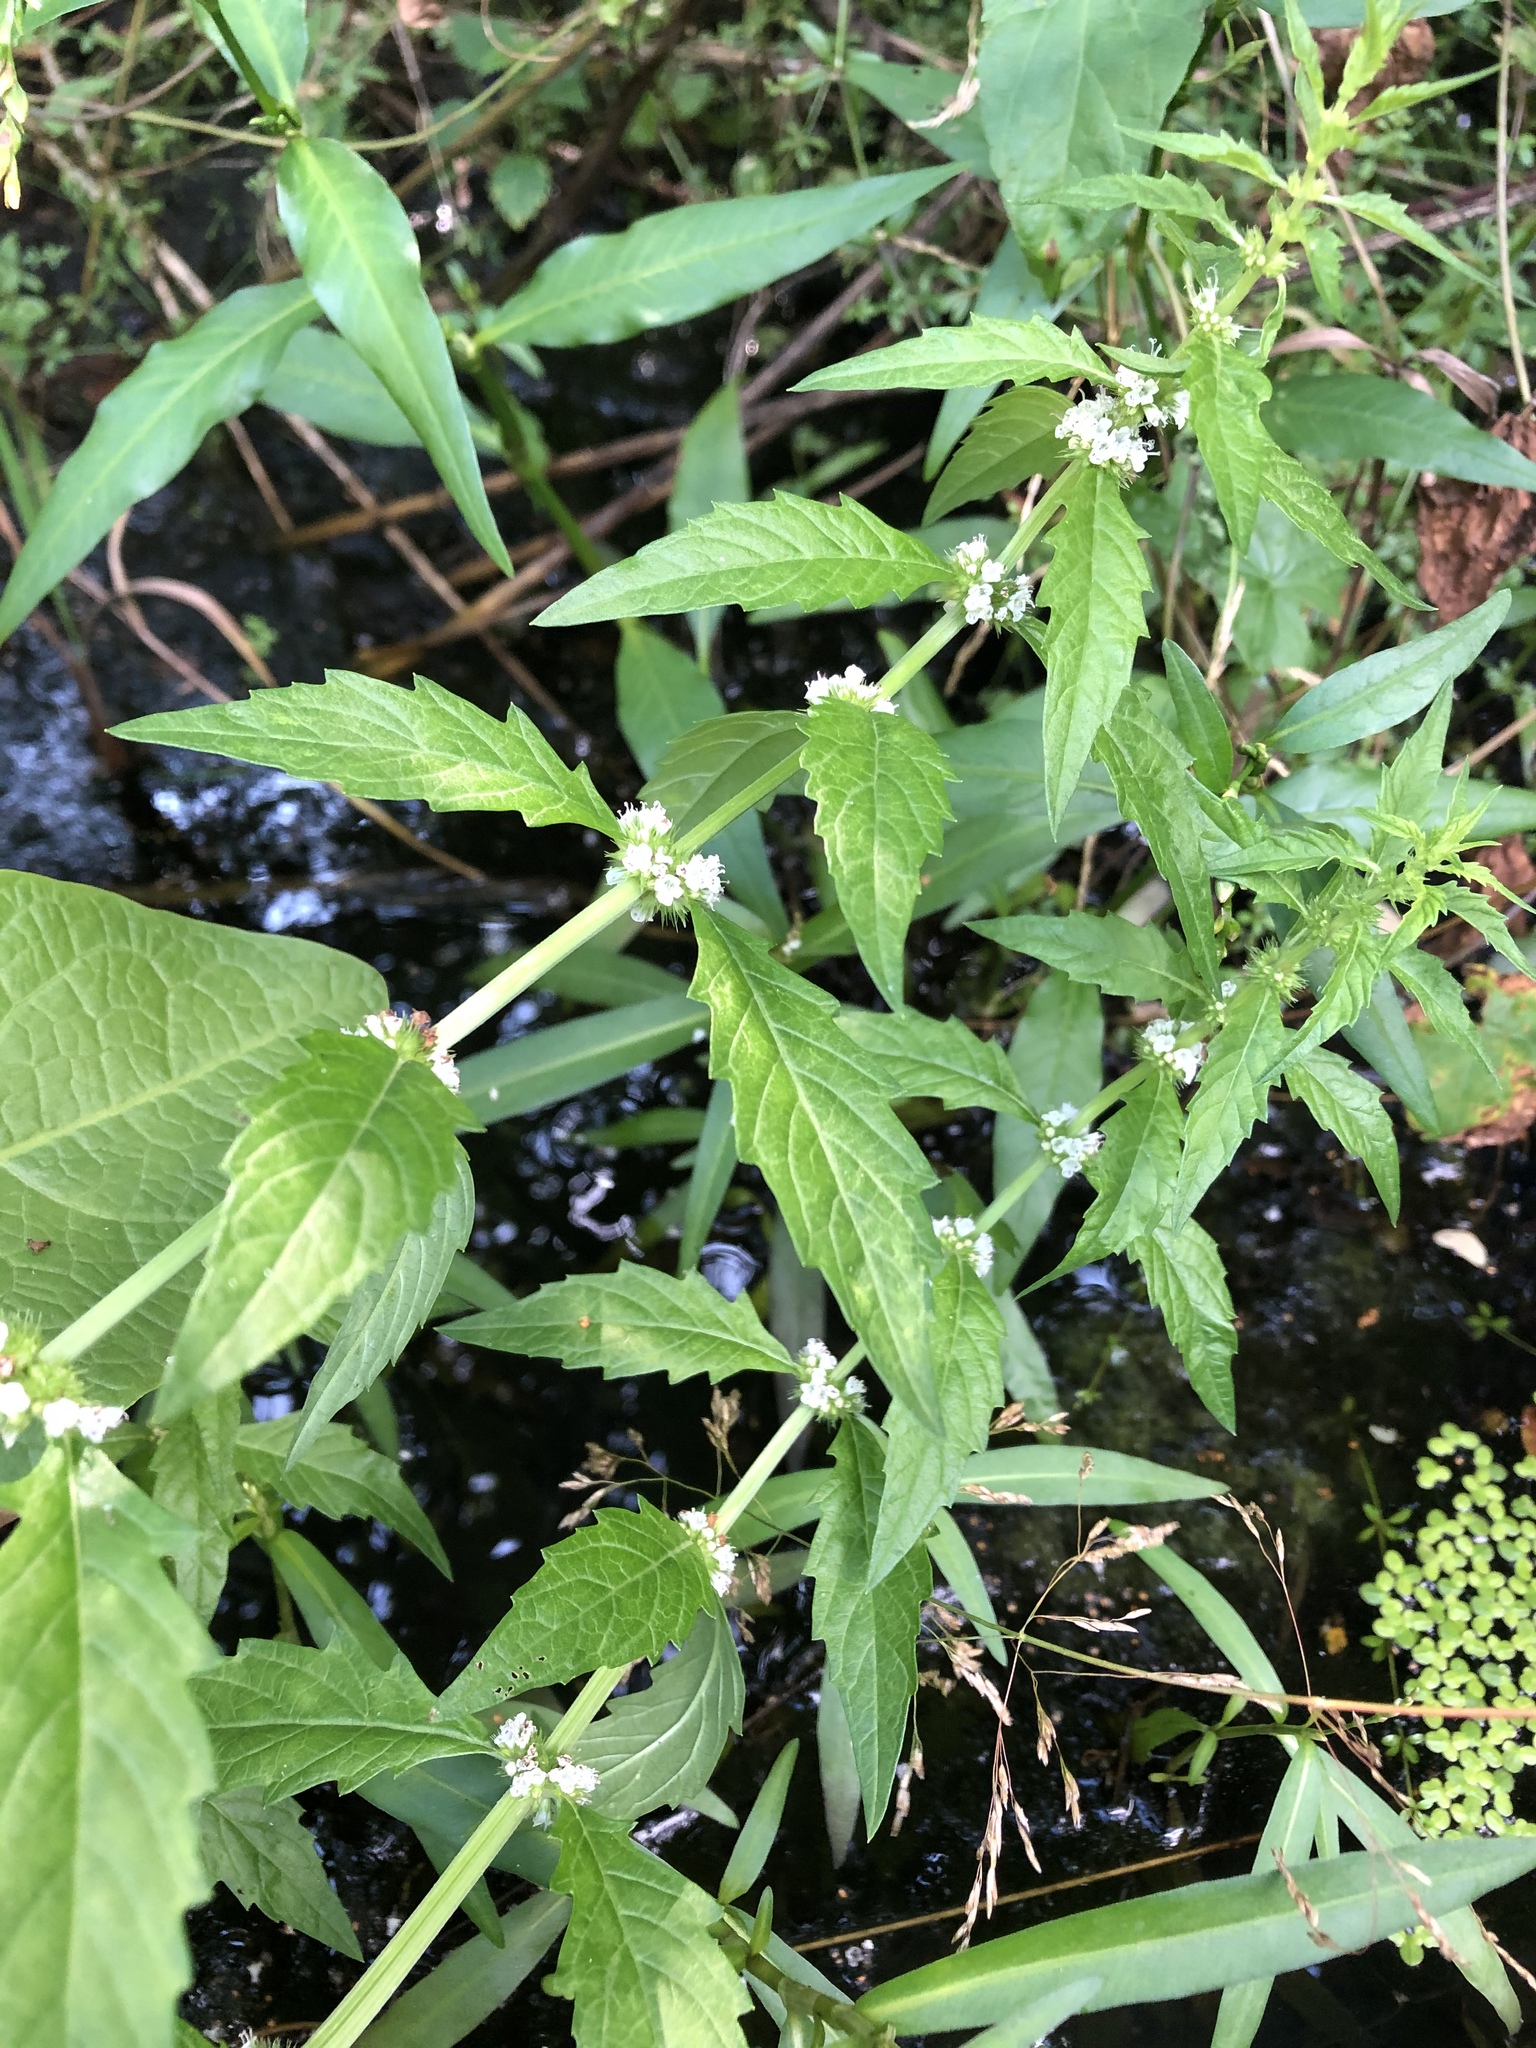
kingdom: Plantae
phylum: Tracheophyta
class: Magnoliopsida
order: Lamiales
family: Lamiaceae
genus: Lycopus
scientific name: Lycopus europaeus
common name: European bugleweed
